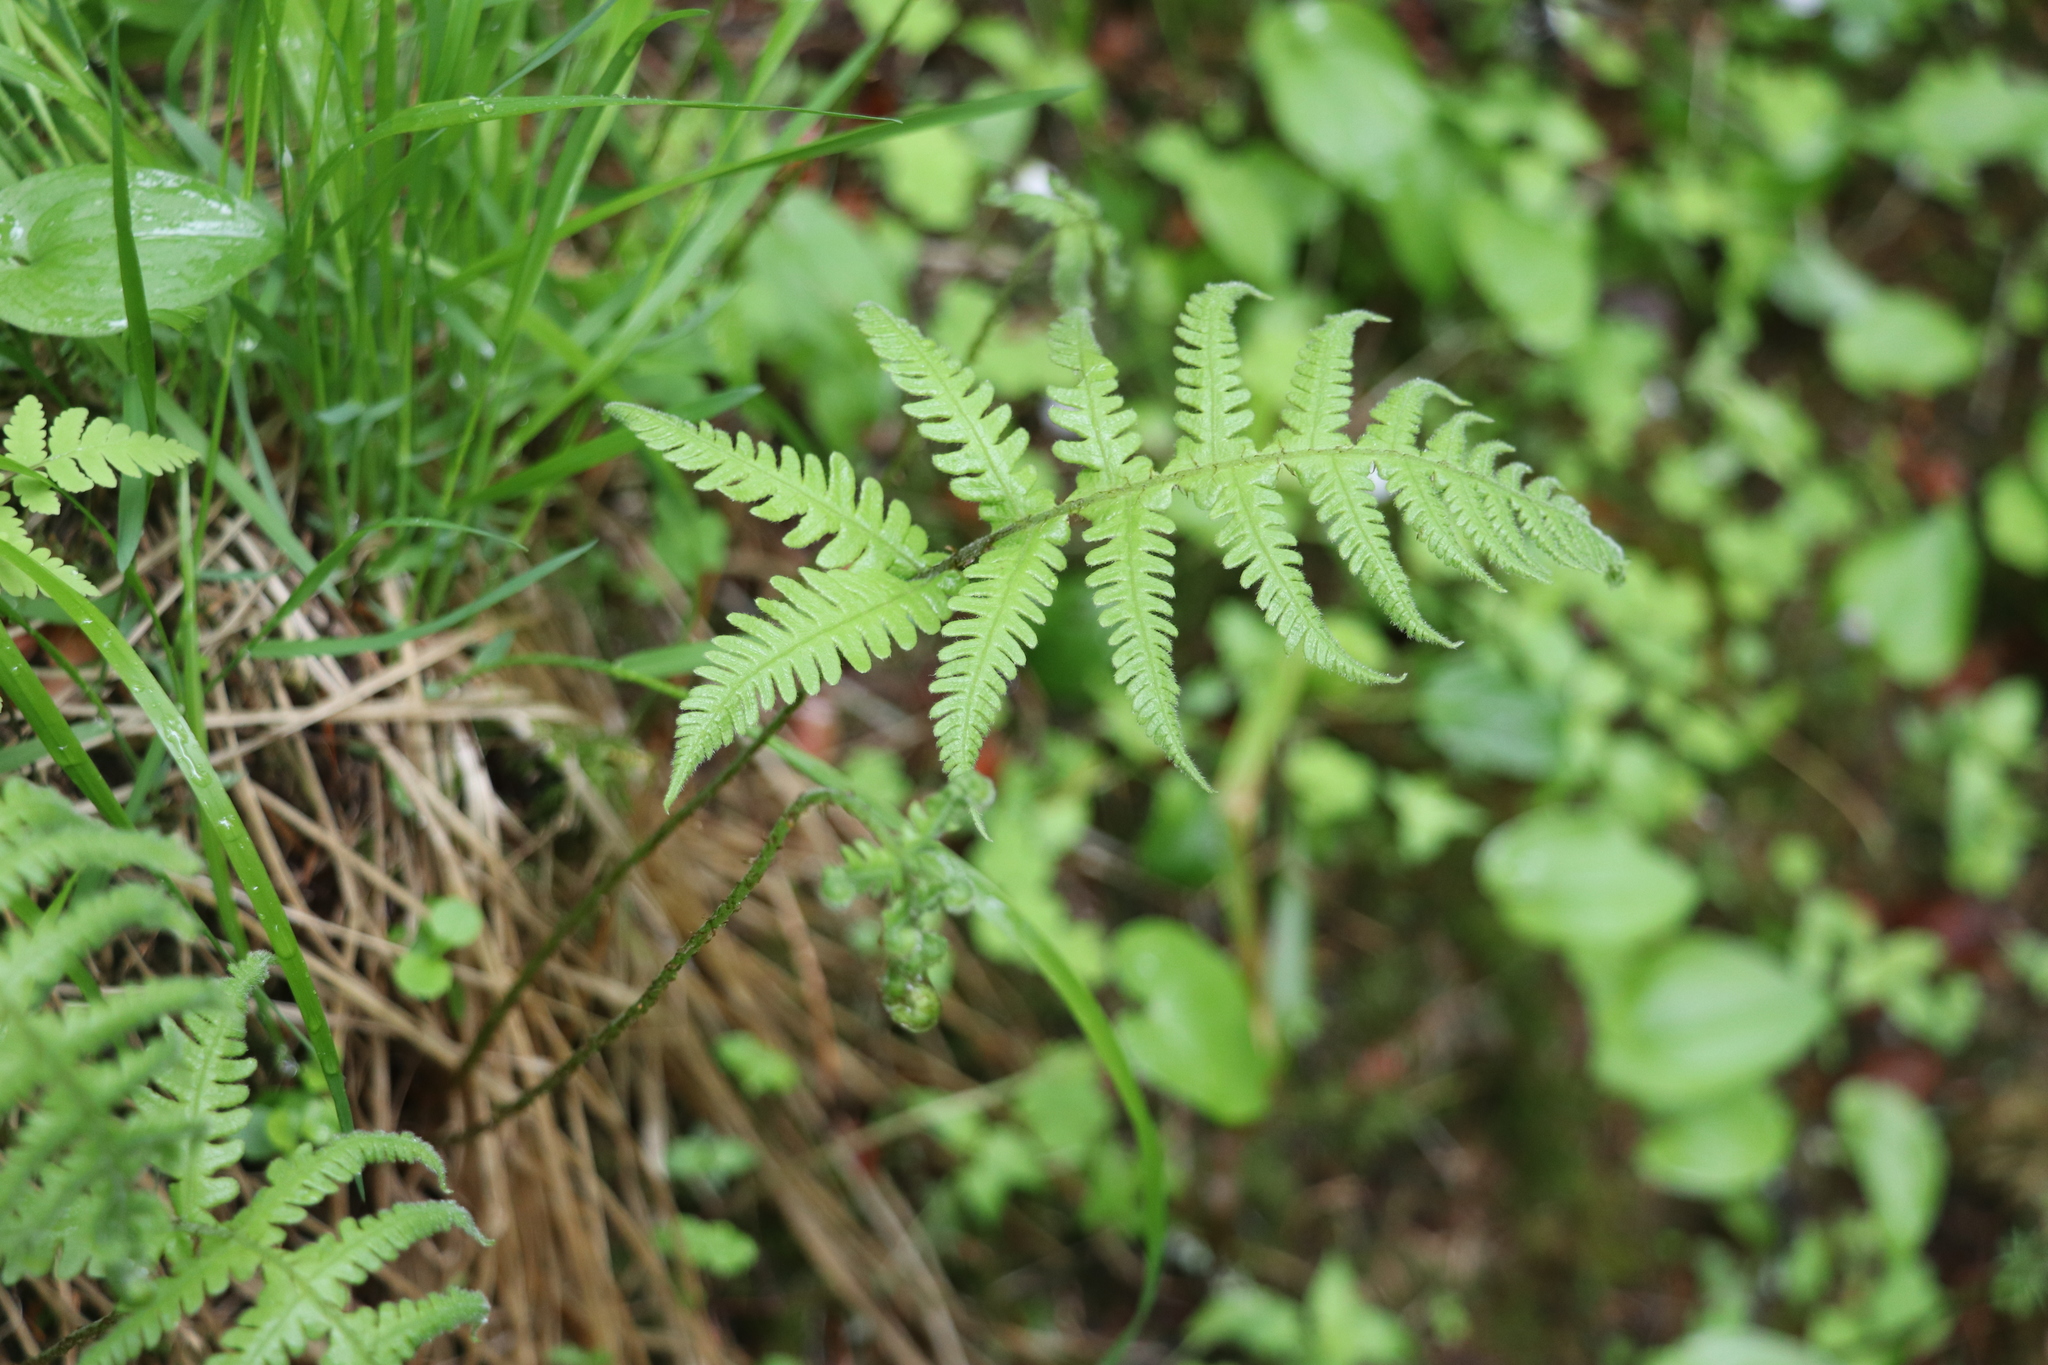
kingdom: Plantae
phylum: Tracheophyta
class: Polypodiopsida
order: Polypodiales
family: Thelypteridaceae
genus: Phegopteris
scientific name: Phegopteris connectilis
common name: Beech fern
